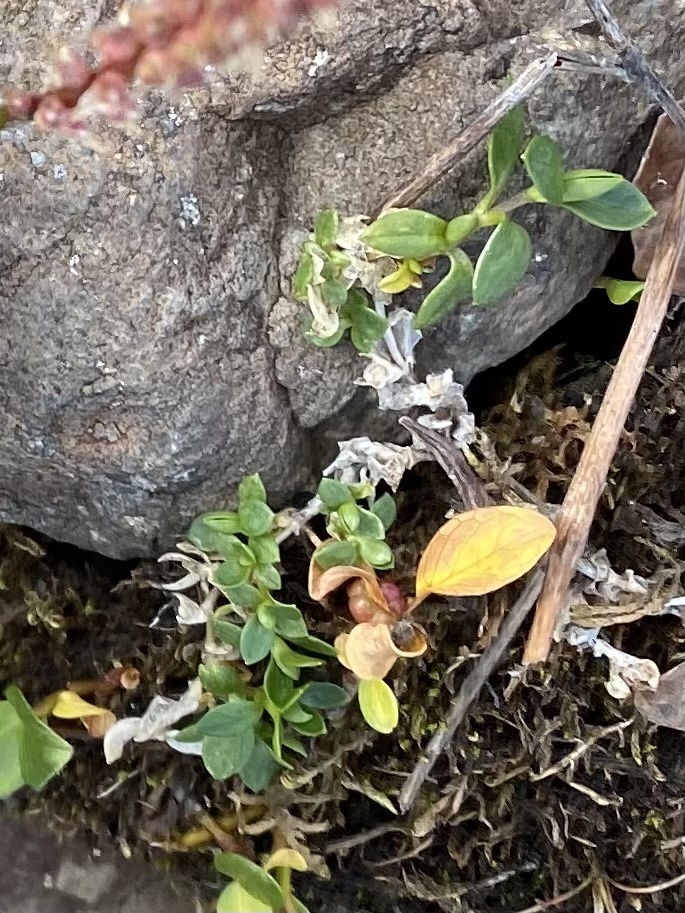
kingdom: Plantae
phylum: Tracheophyta
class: Magnoliopsida
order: Caryophyllales
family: Caryophyllaceae
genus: Cerastium
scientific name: Cerastium regelii
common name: Regel's chickweed
